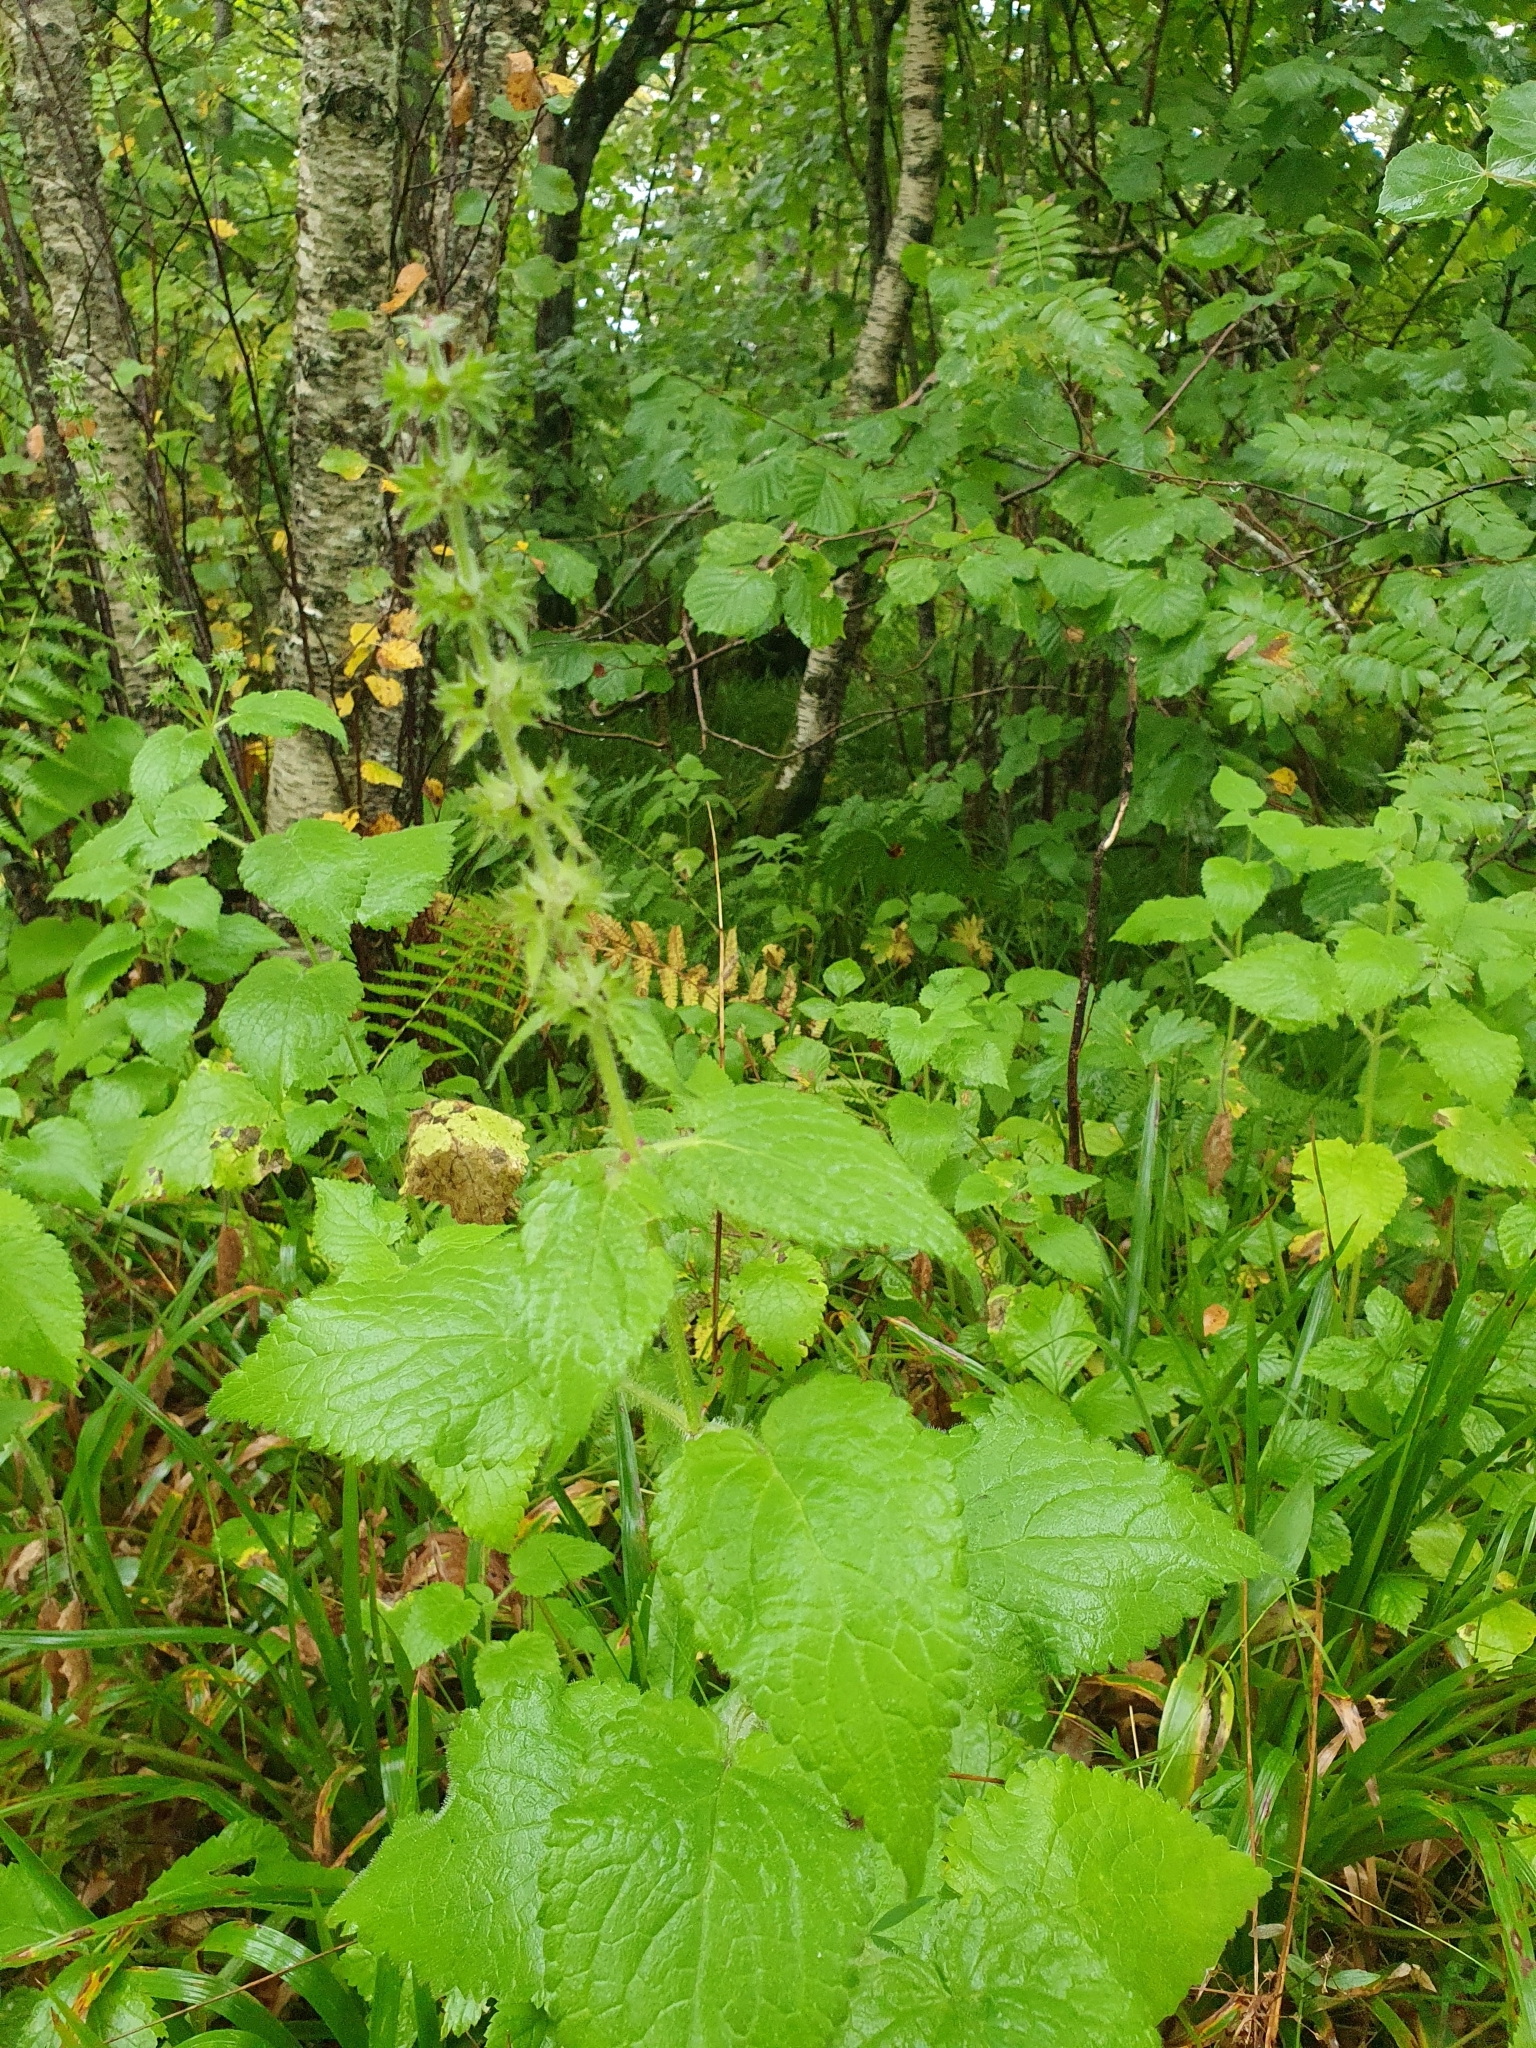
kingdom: Plantae
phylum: Tracheophyta
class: Magnoliopsida
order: Lamiales
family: Lamiaceae
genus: Stachys
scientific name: Stachys sylvatica
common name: Hedge woundwort
